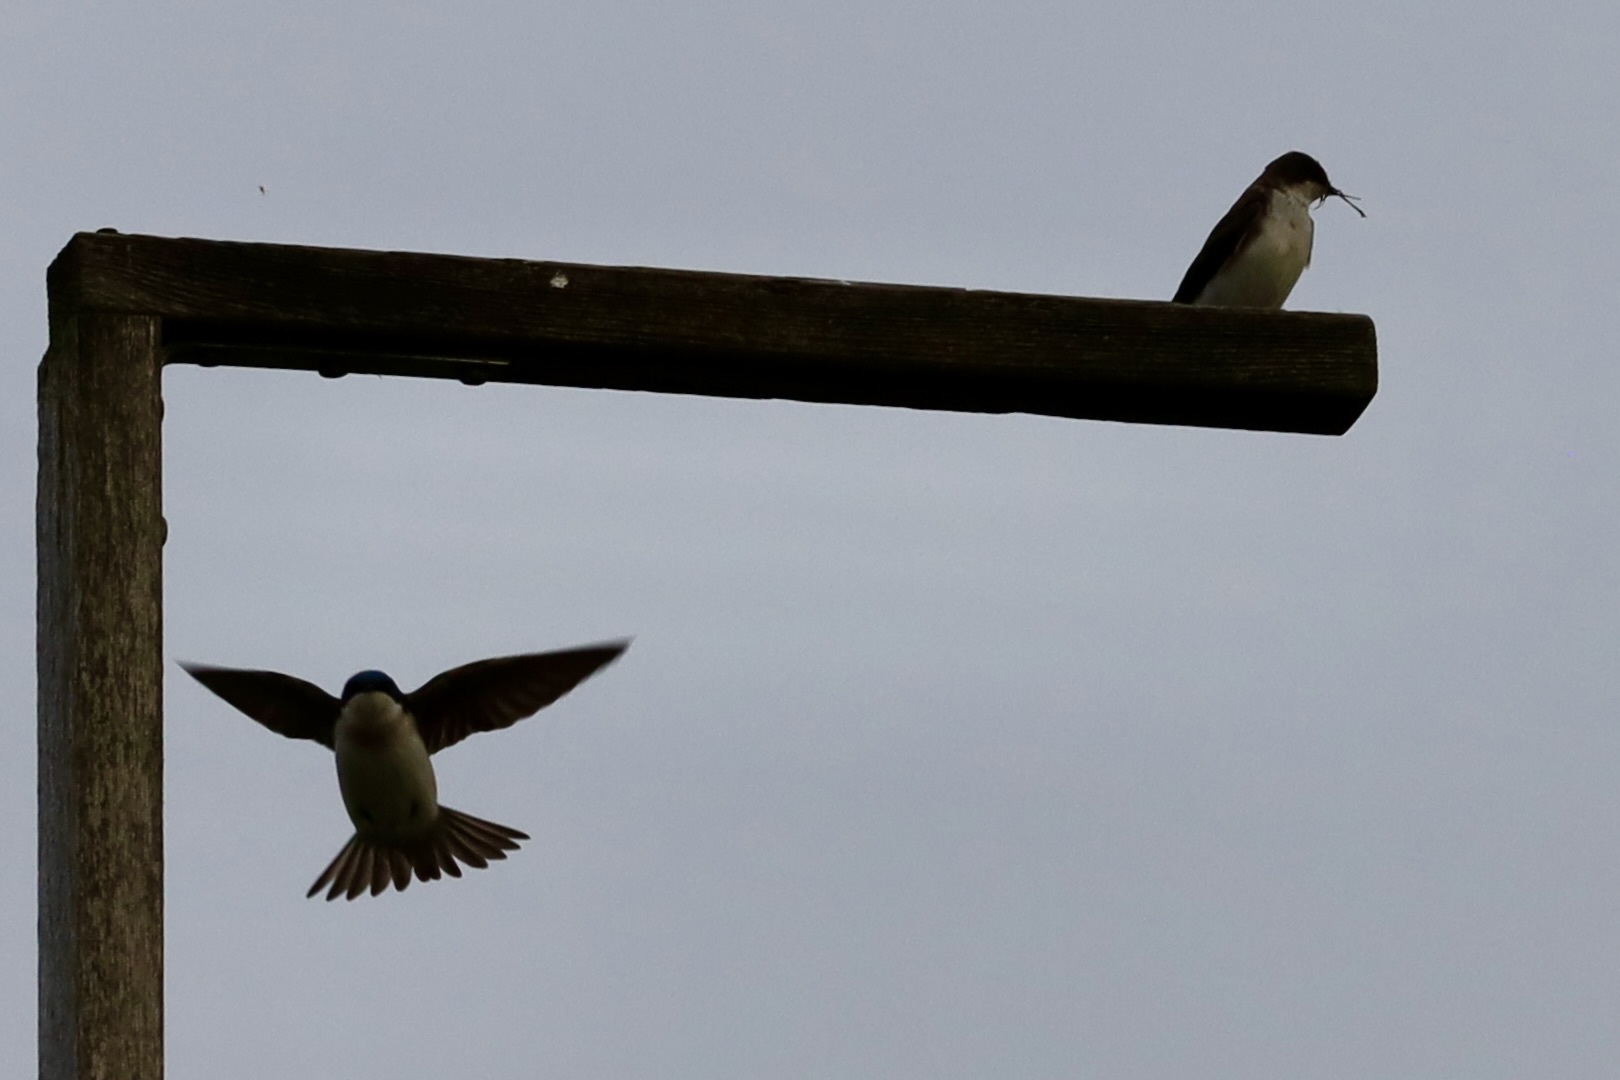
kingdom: Animalia
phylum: Chordata
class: Aves
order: Passeriformes
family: Hirundinidae
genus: Tachycineta
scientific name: Tachycineta bicolor
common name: Tree swallow
